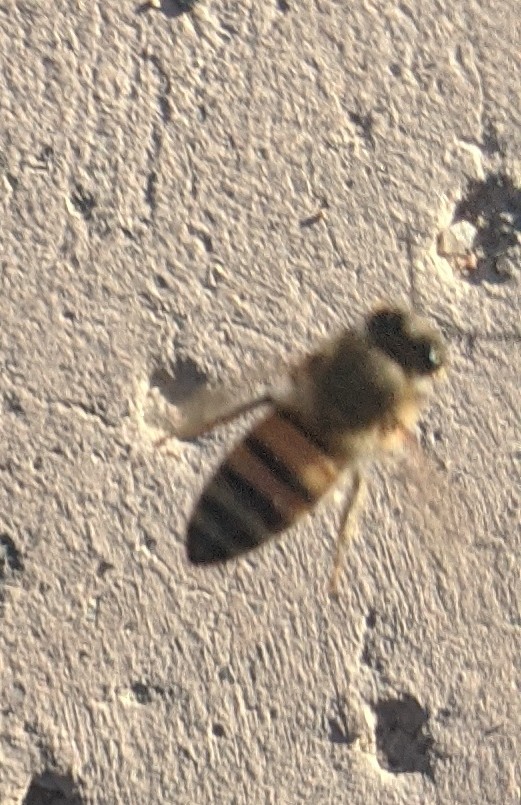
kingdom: Animalia
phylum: Arthropoda
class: Insecta
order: Hymenoptera
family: Apidae
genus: Apis
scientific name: Apis mellifera
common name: Honey bee
